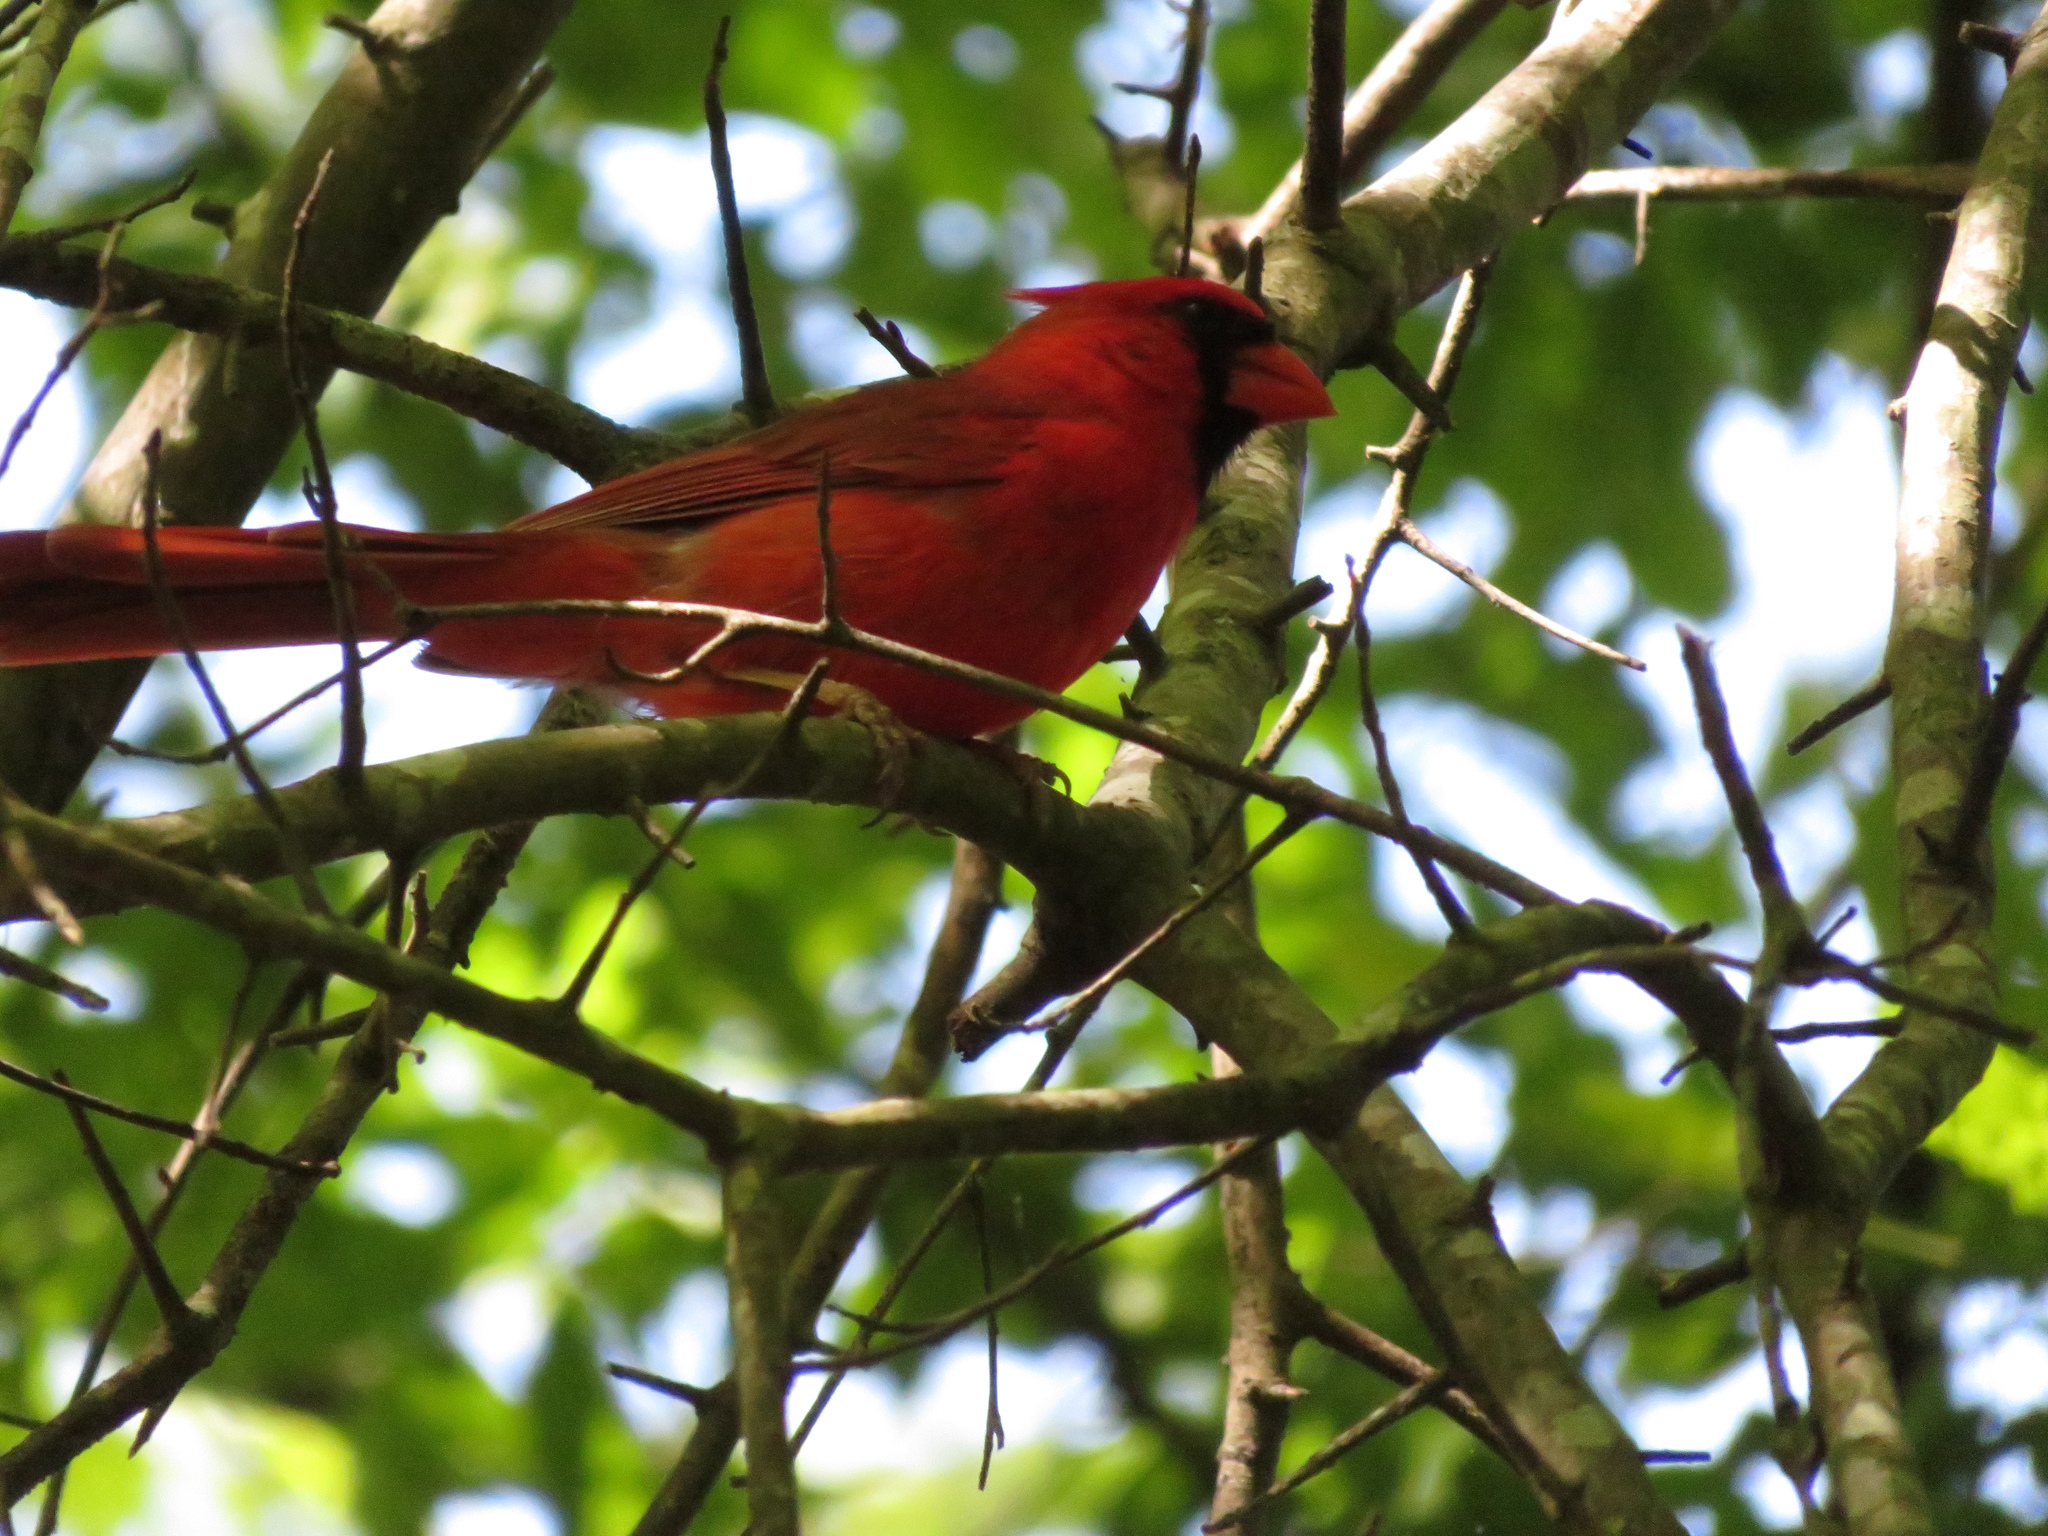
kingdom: Animalia
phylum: Chordata
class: Aves
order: Passeriformes
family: Cardinalidae
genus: Cardinalis
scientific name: Cardinalis cardinalis
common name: Northern cardinal
